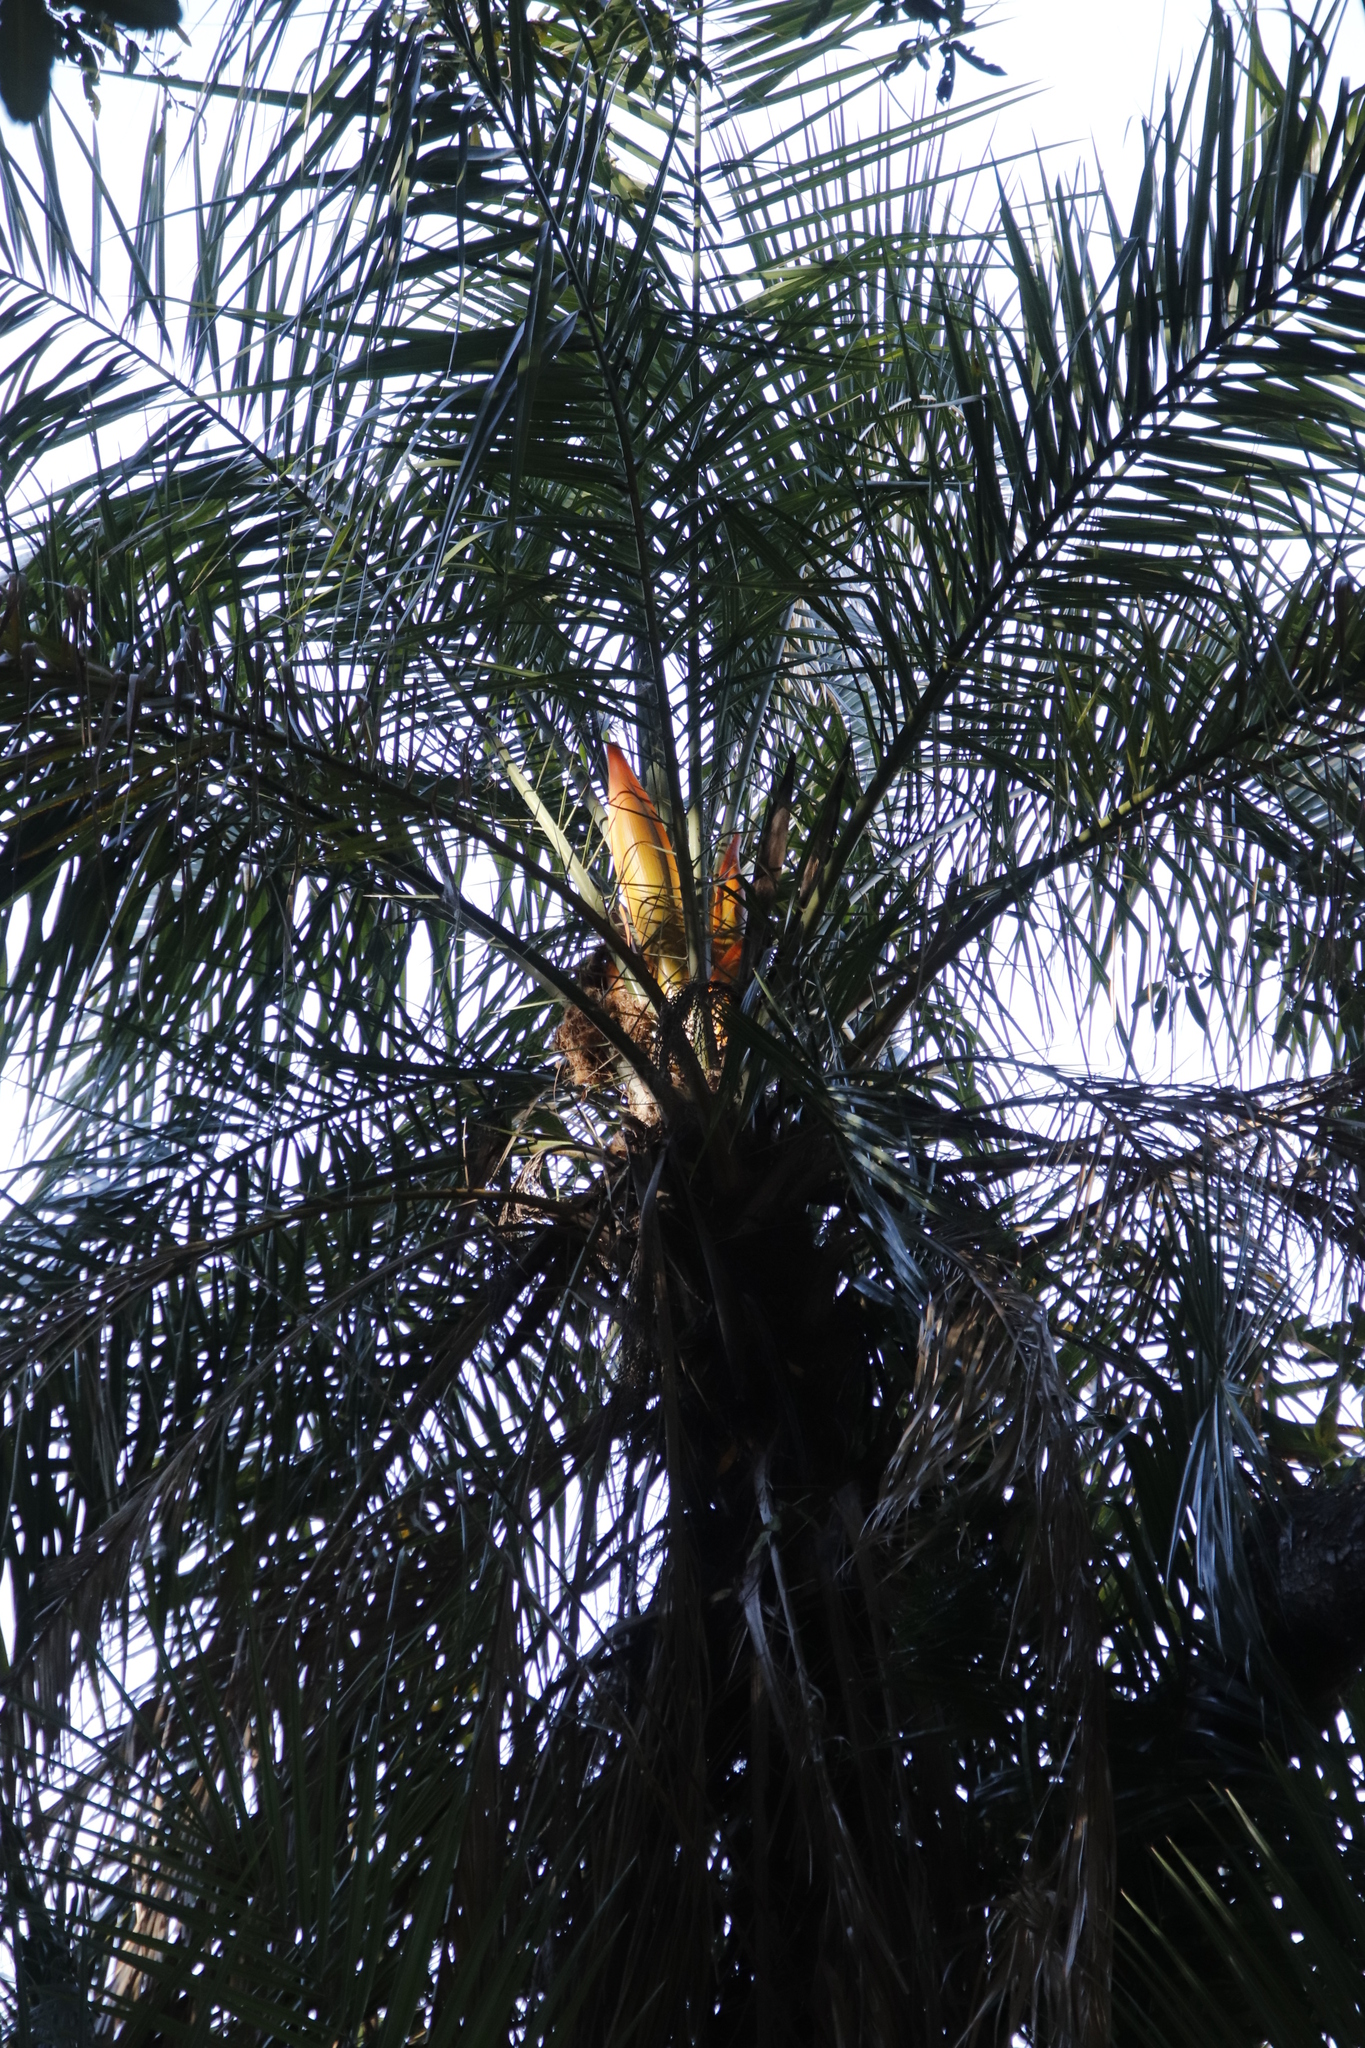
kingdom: Plantae
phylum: Tracheophyta
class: Liliopsida
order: Arecales
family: Arecaceae
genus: Phoenix
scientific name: Phoenix reclinata
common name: Senegal date palm
